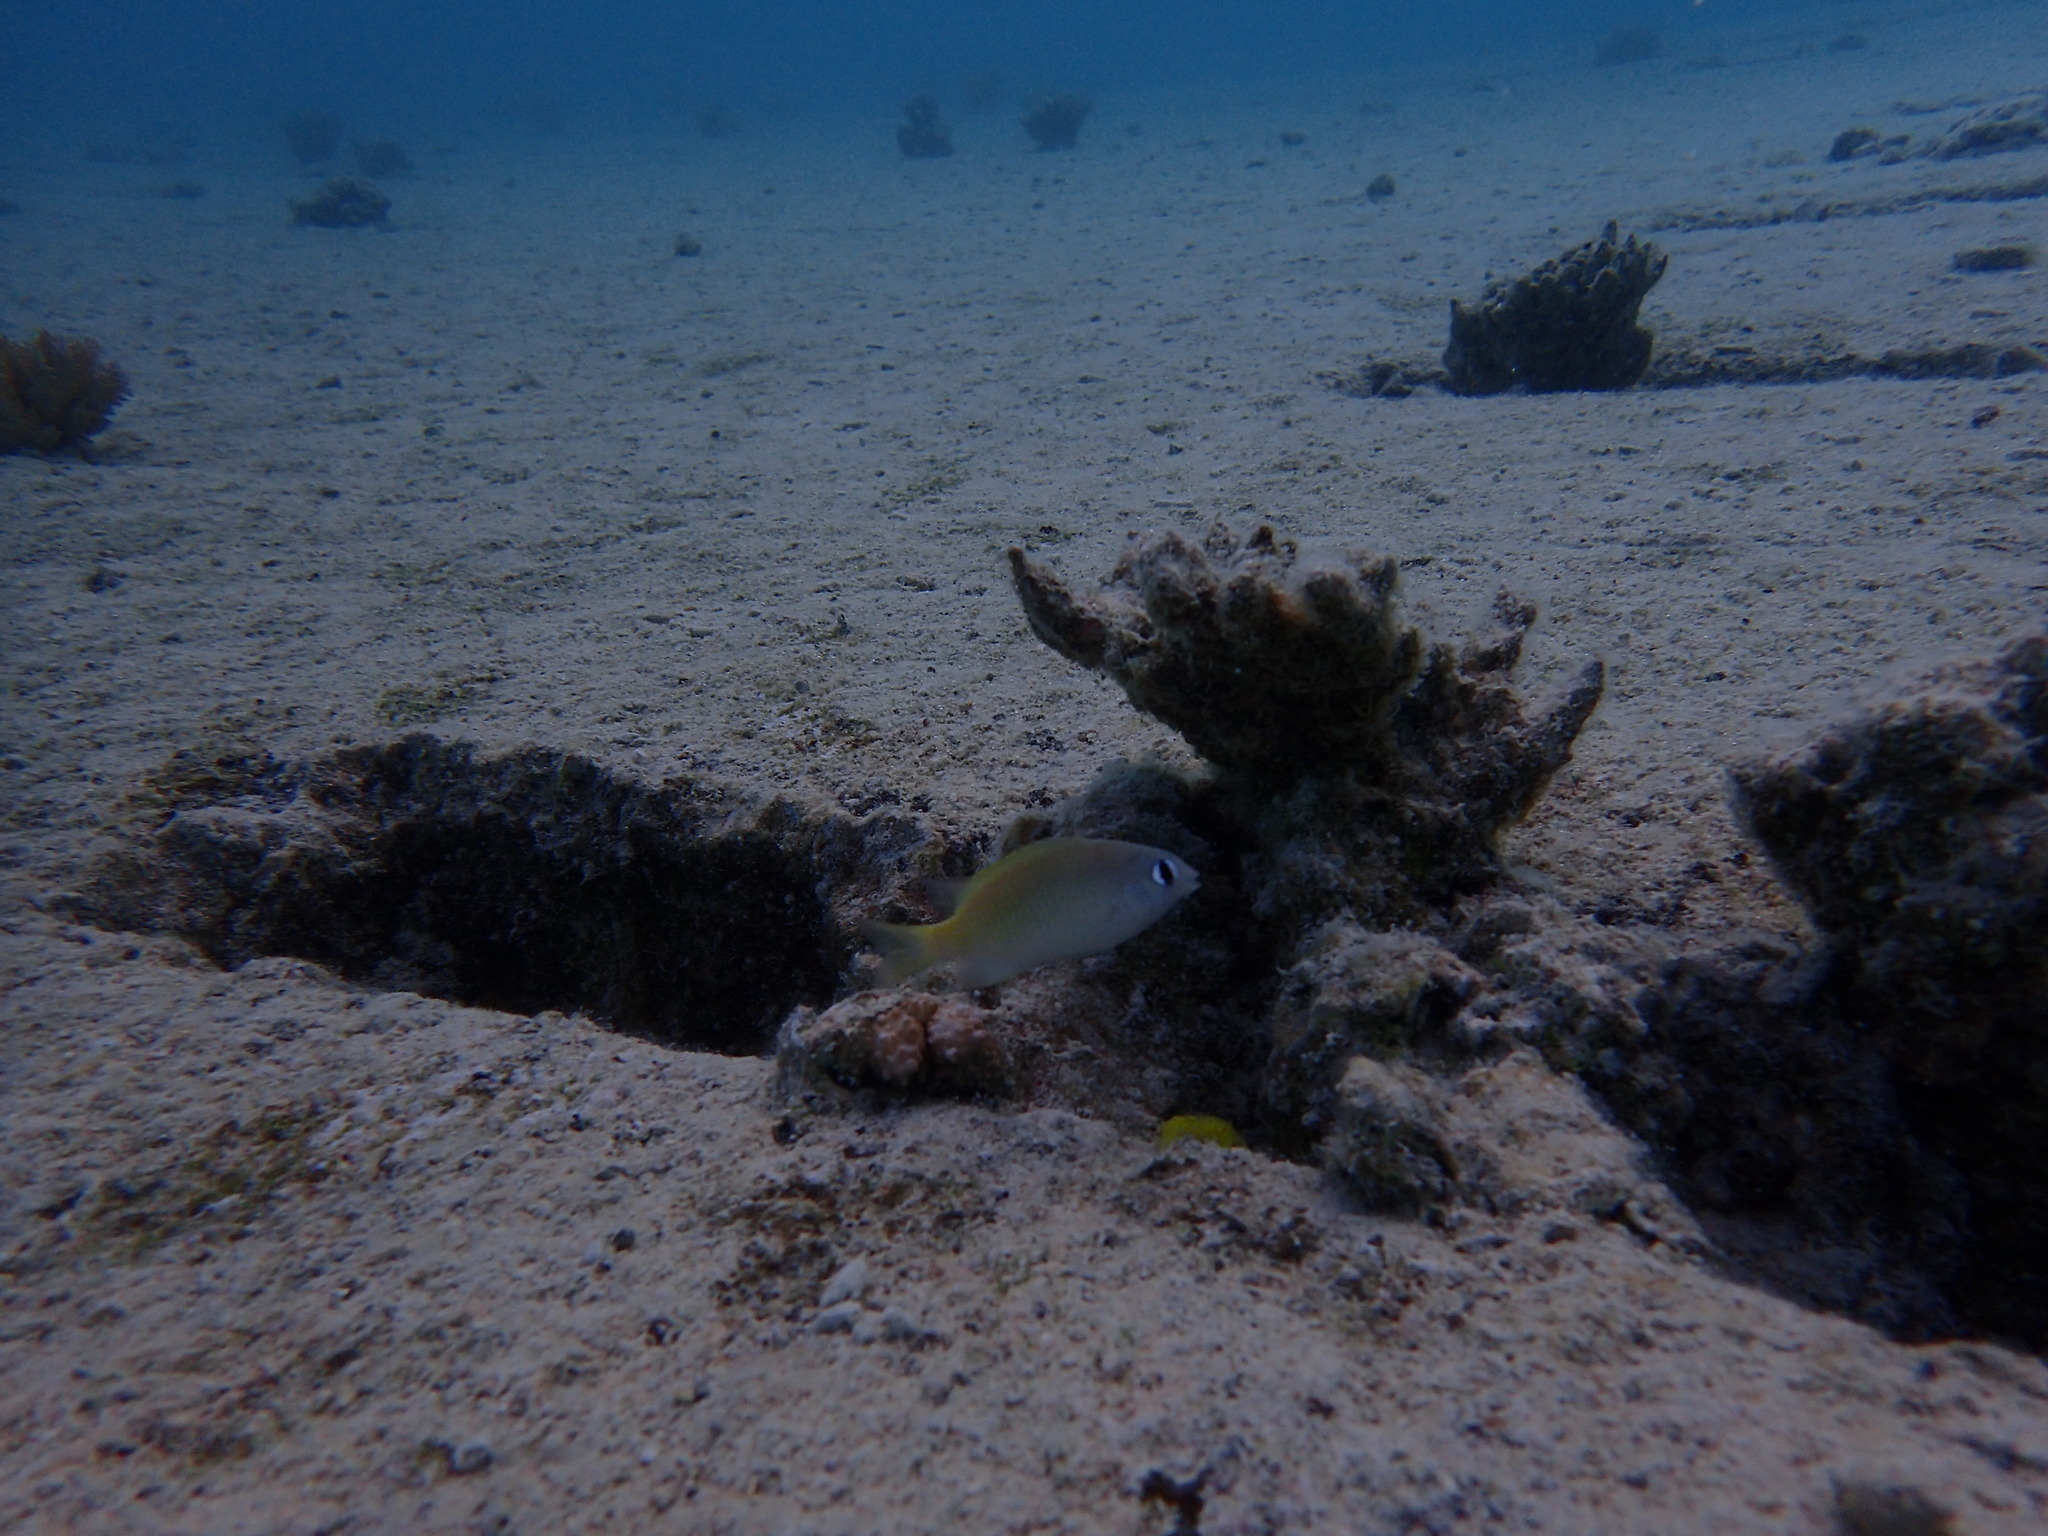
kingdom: Animalia
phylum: Chordata
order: Perciformes
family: Pomacentridae
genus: Plectroglyphidodon
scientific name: Plectroglyphidodon imparipennis
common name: Brighteye damsel
